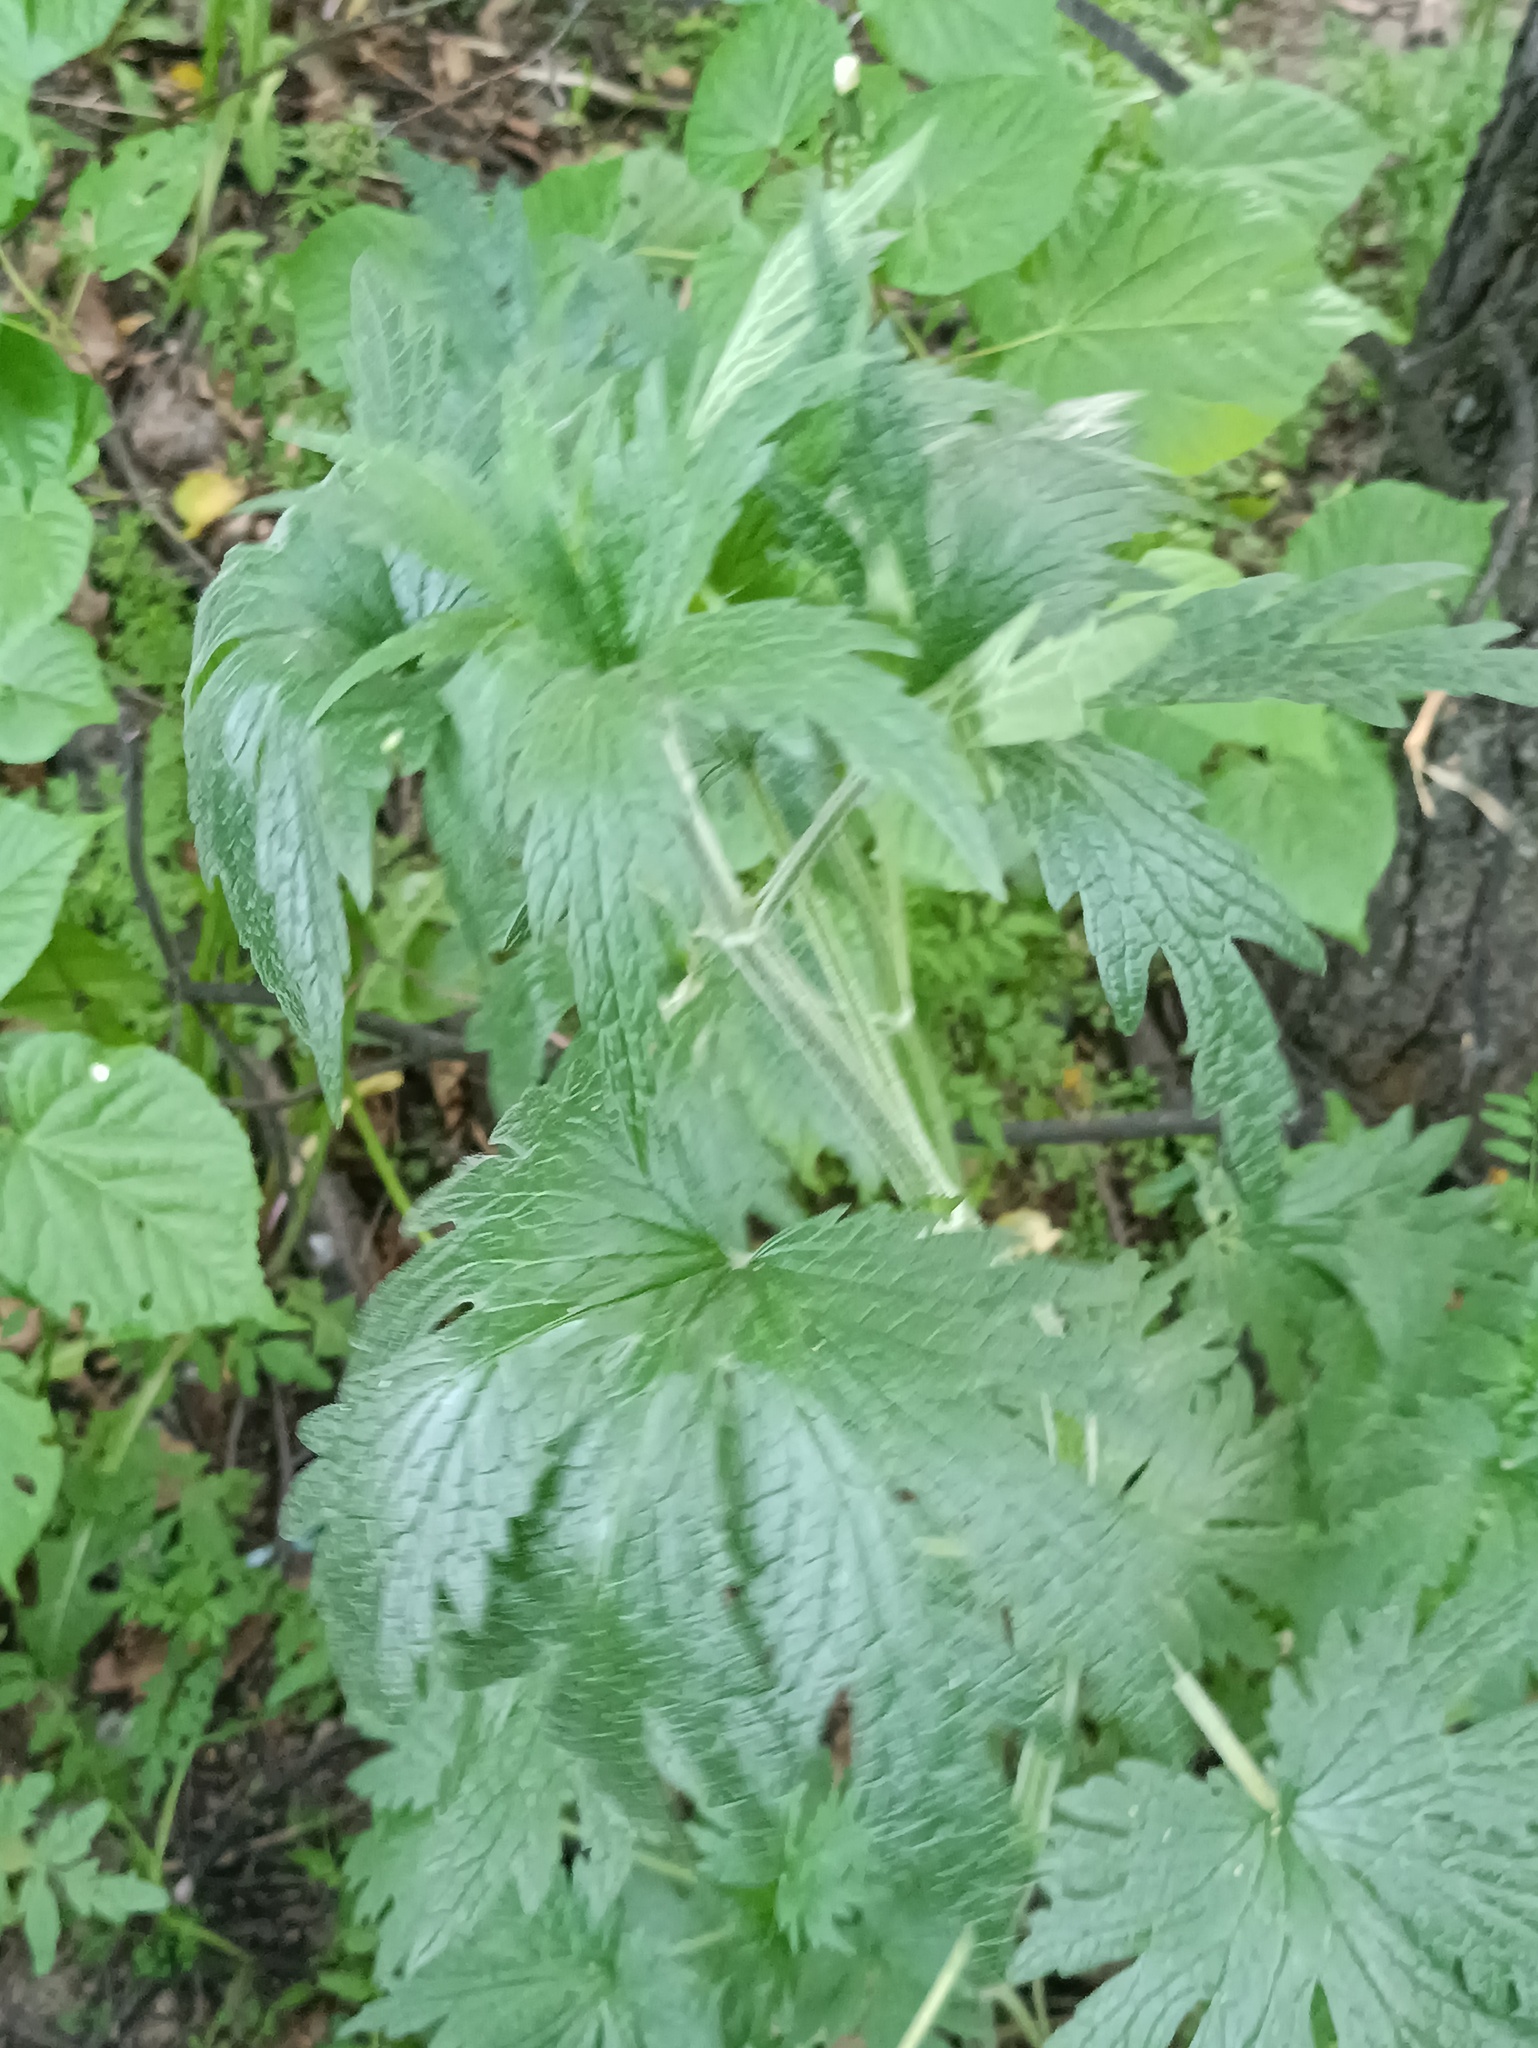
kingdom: Plantae
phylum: Tracheophyta
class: Magnoliopsida
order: Lamiales
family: Lamiaceae
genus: Leonurus
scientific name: Leonurus quinquelobatus
